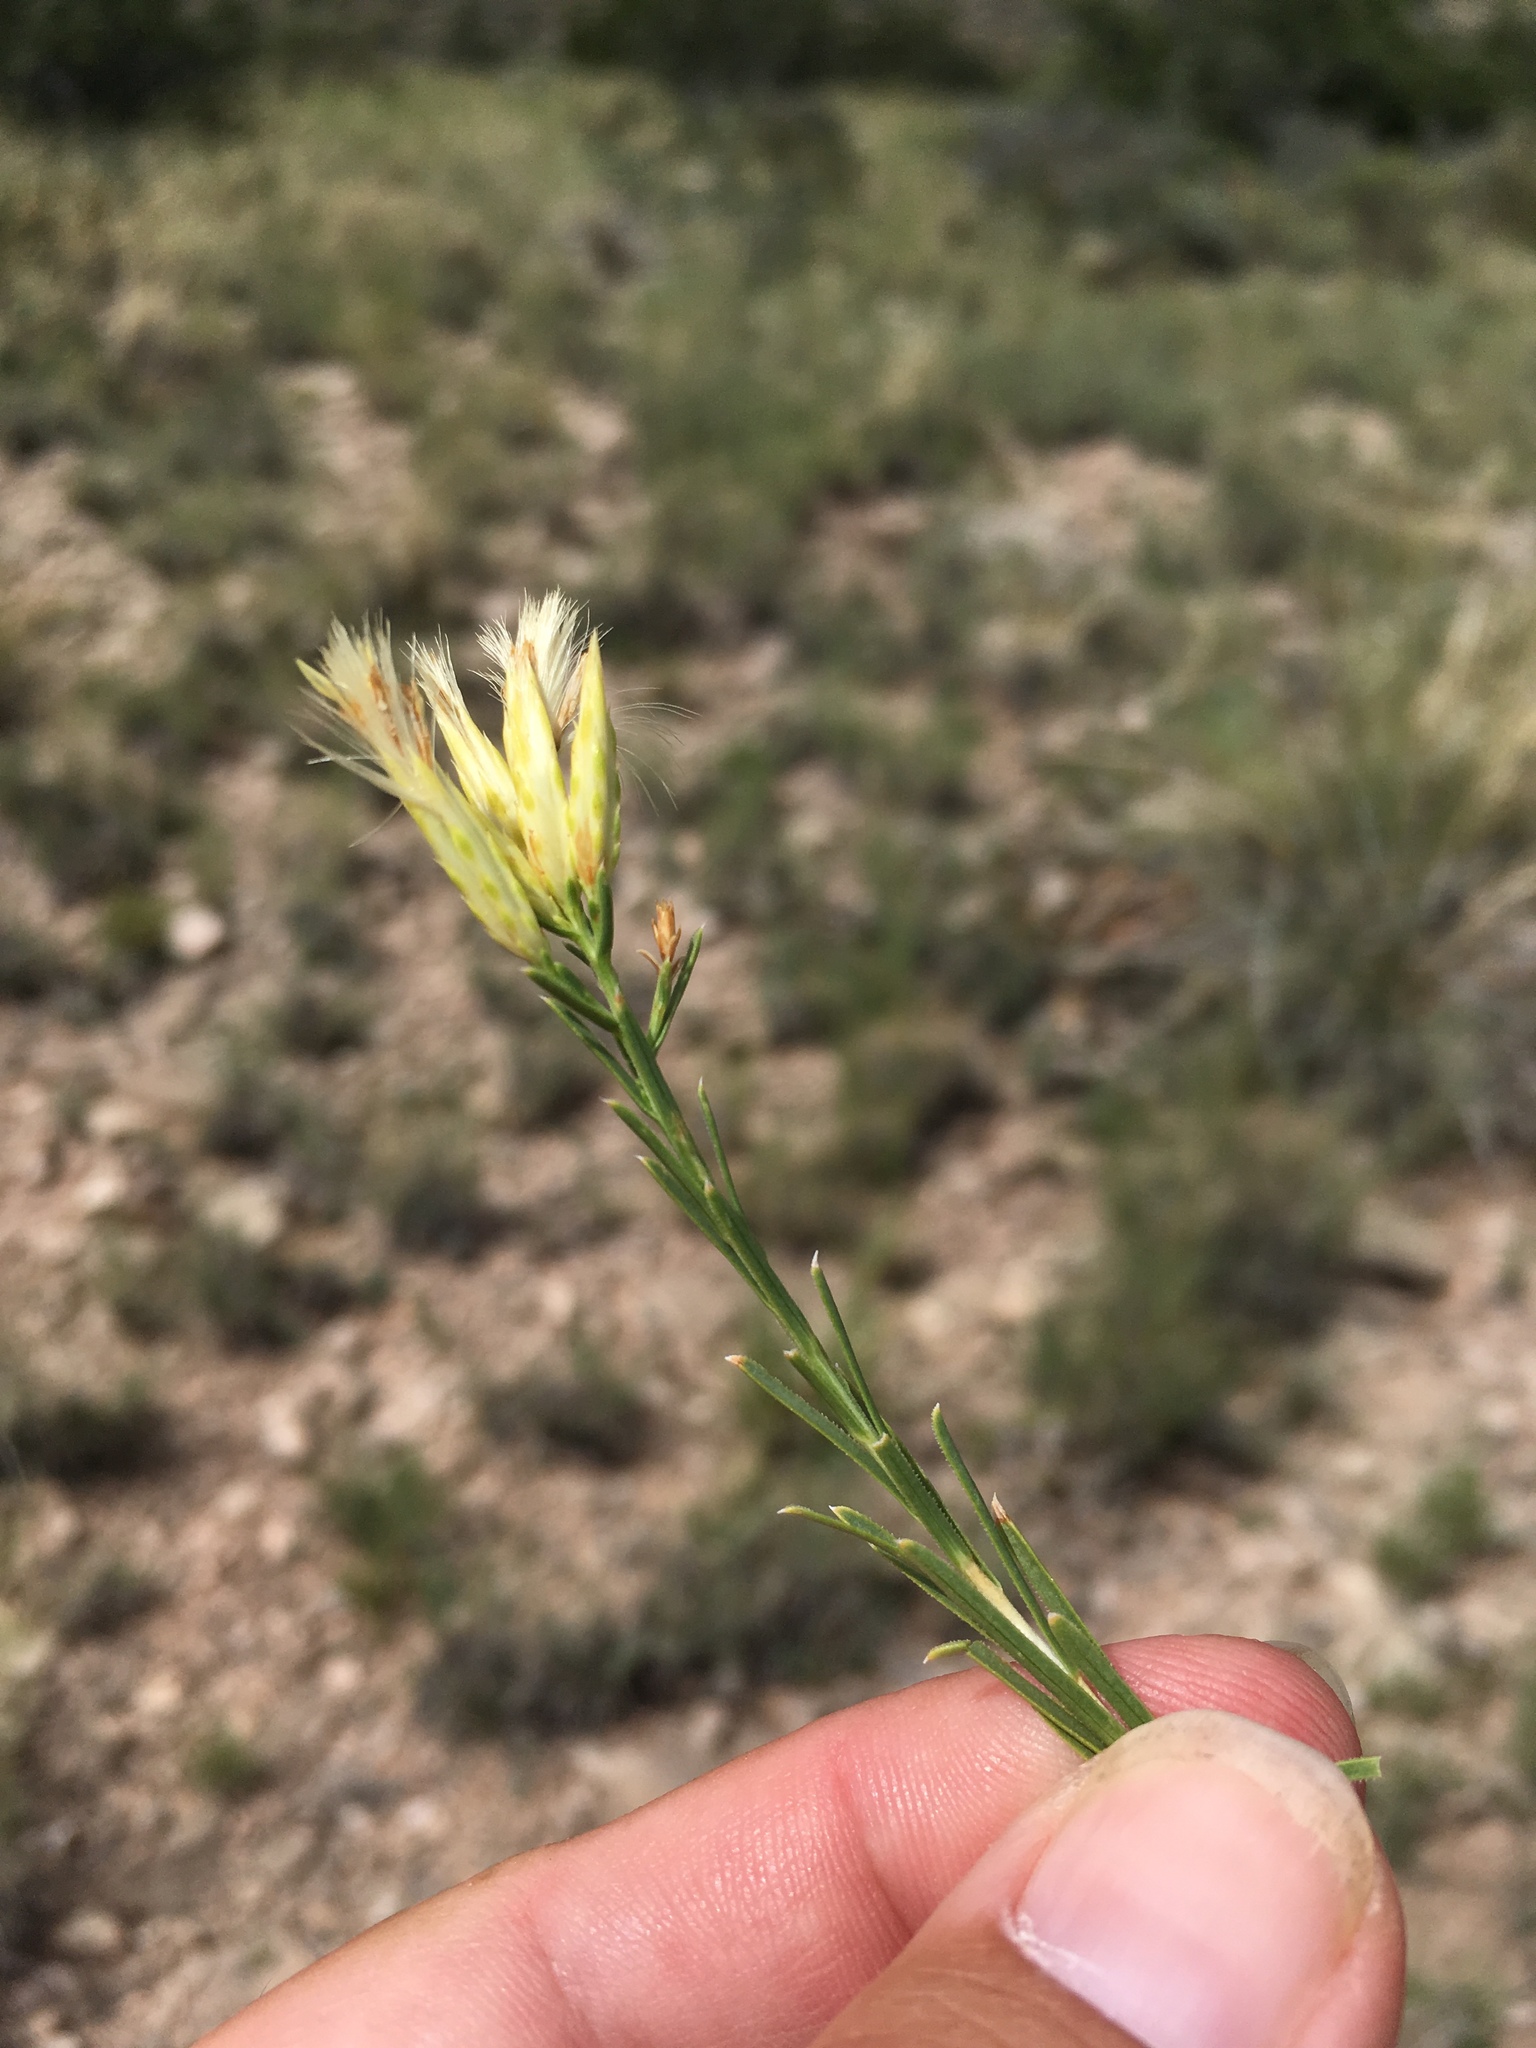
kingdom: Plantae
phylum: Tracheophyta
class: Magnoliopsida
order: Asterales
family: Asteraceae
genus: Lorandersonia
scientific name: Lorandersonia baileyi
